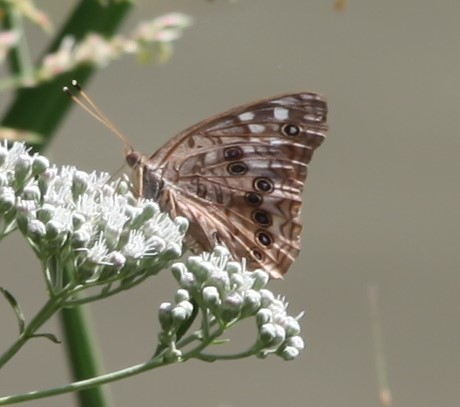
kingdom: Animalia
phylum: Arthropoda
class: Insecta
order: Lepidoptera
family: Nymphalidae
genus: Asterocampa
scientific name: Asterocampa celtis
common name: Hackberry emperor
